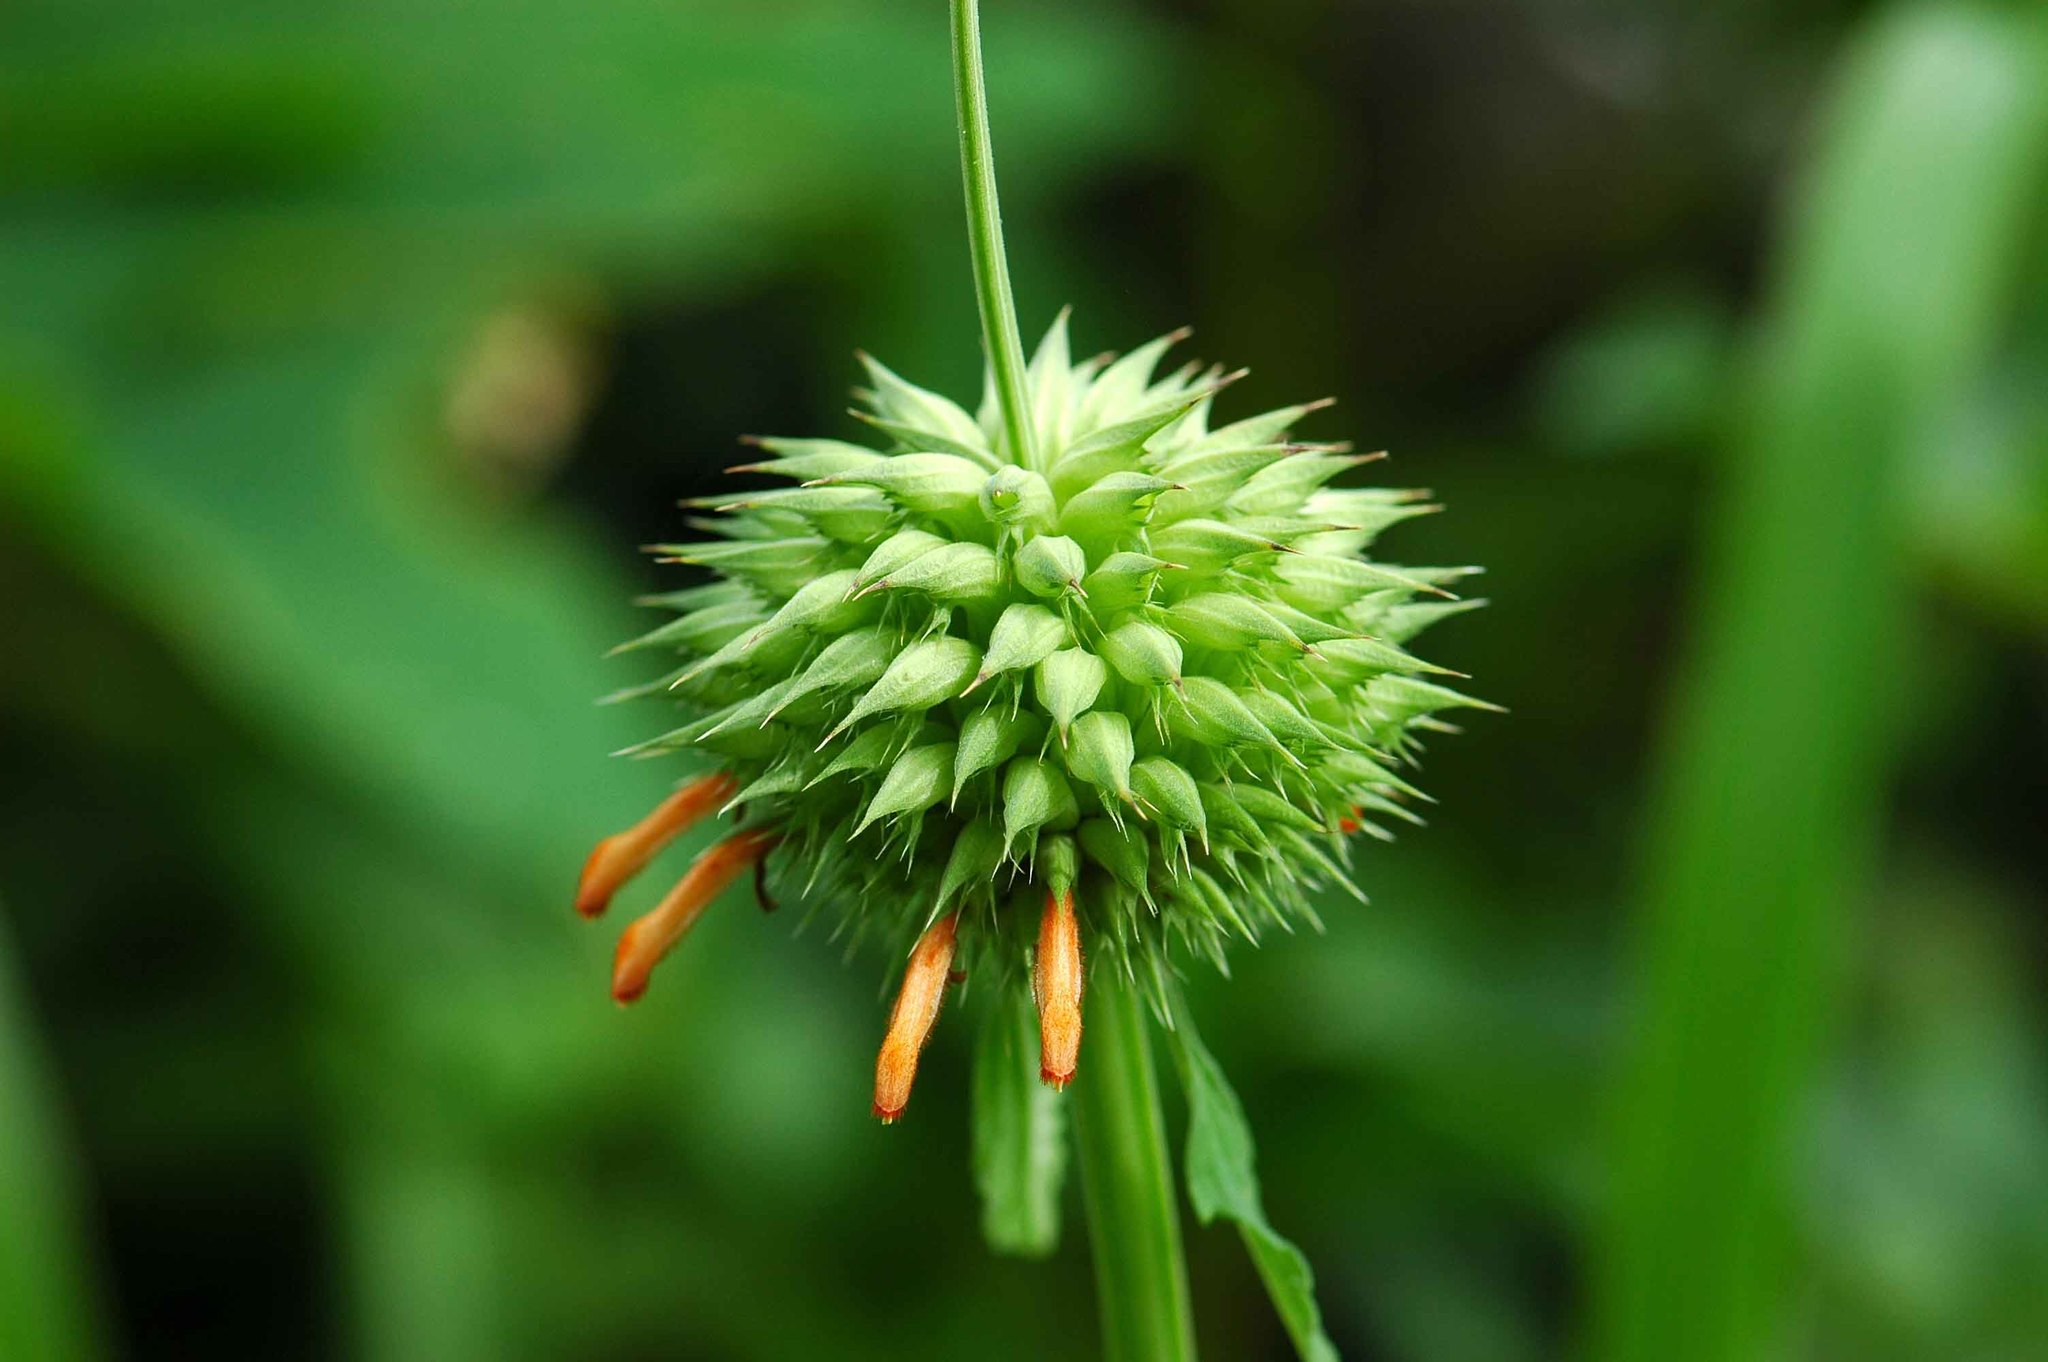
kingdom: Plantae
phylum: Tracheophyta
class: Magnoliopsida
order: Lamiales
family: Lamiaceae
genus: Leonotis
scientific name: Leonotis nepetifolia
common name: Christmas candlestick
